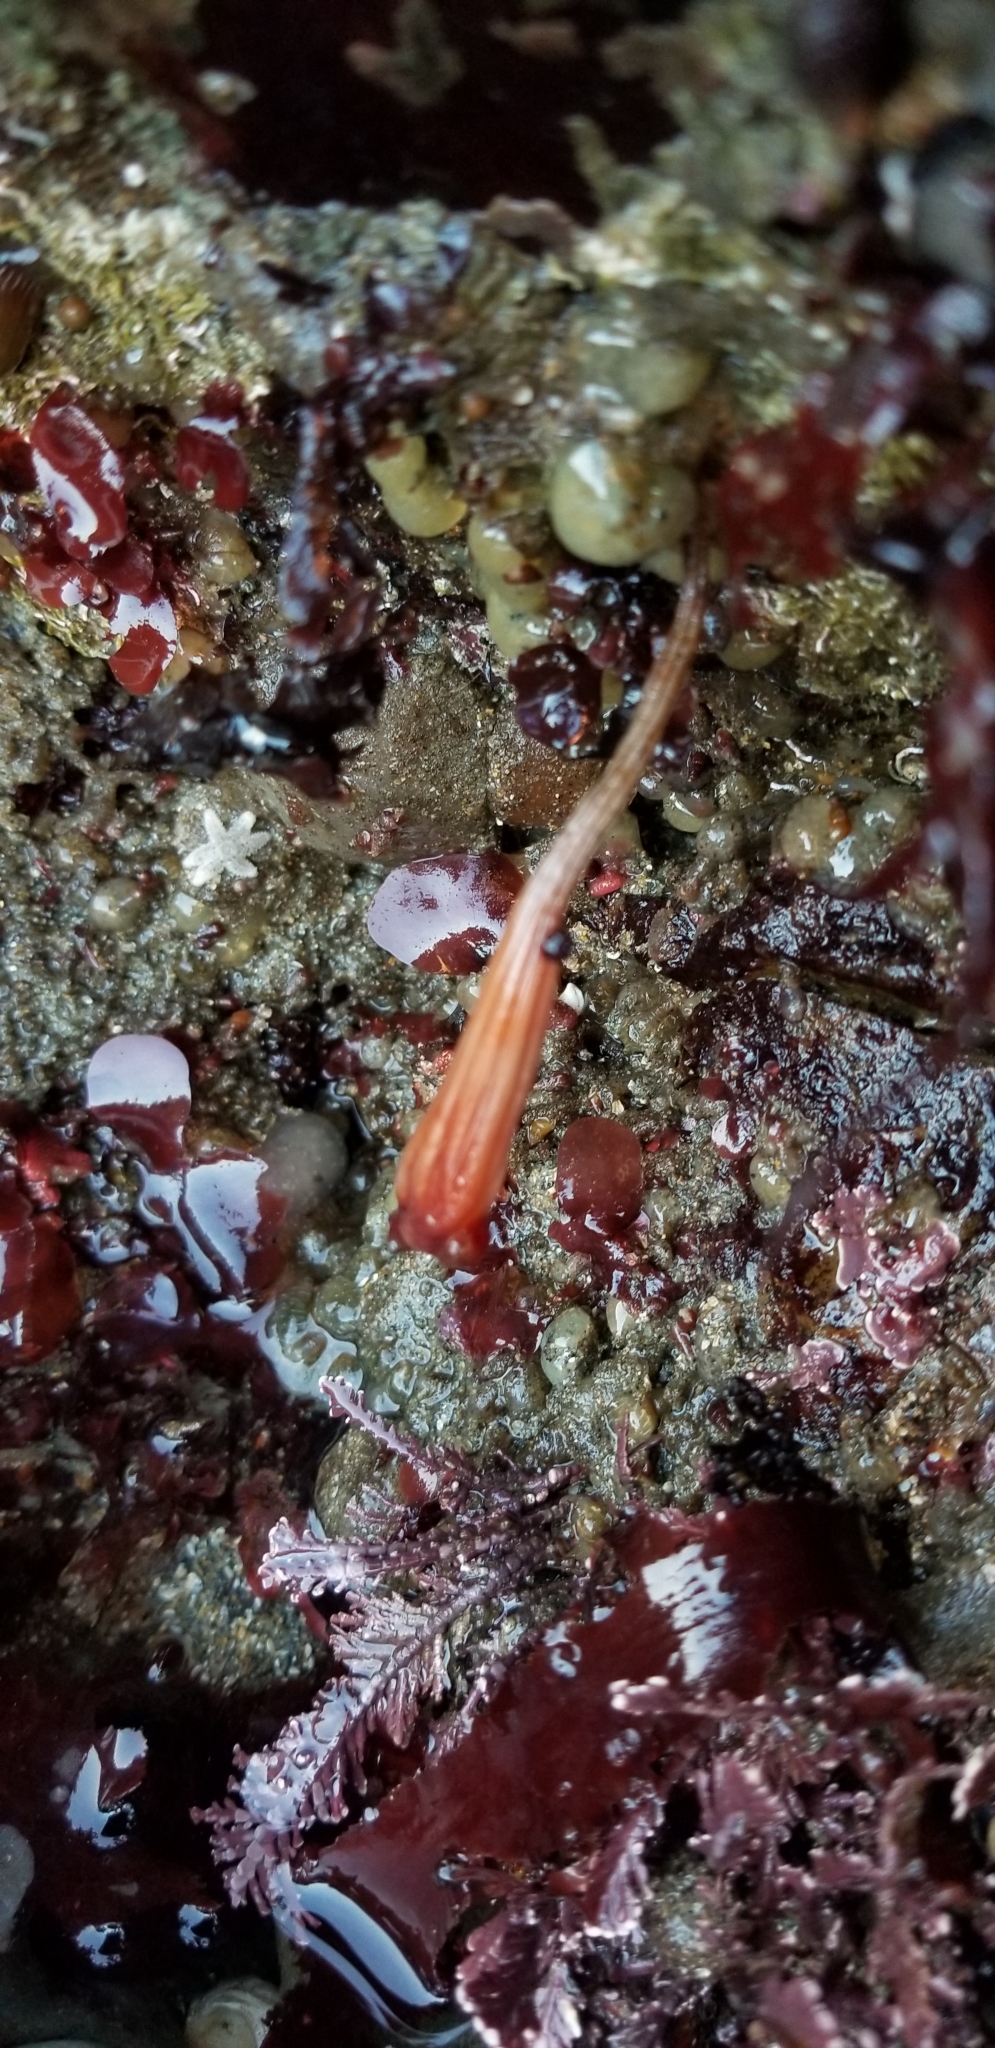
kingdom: Animalia
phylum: Chordata
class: Ascidiacea
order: Stolidobranchia
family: Styelidae
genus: Styela
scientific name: Styela montereyensis
